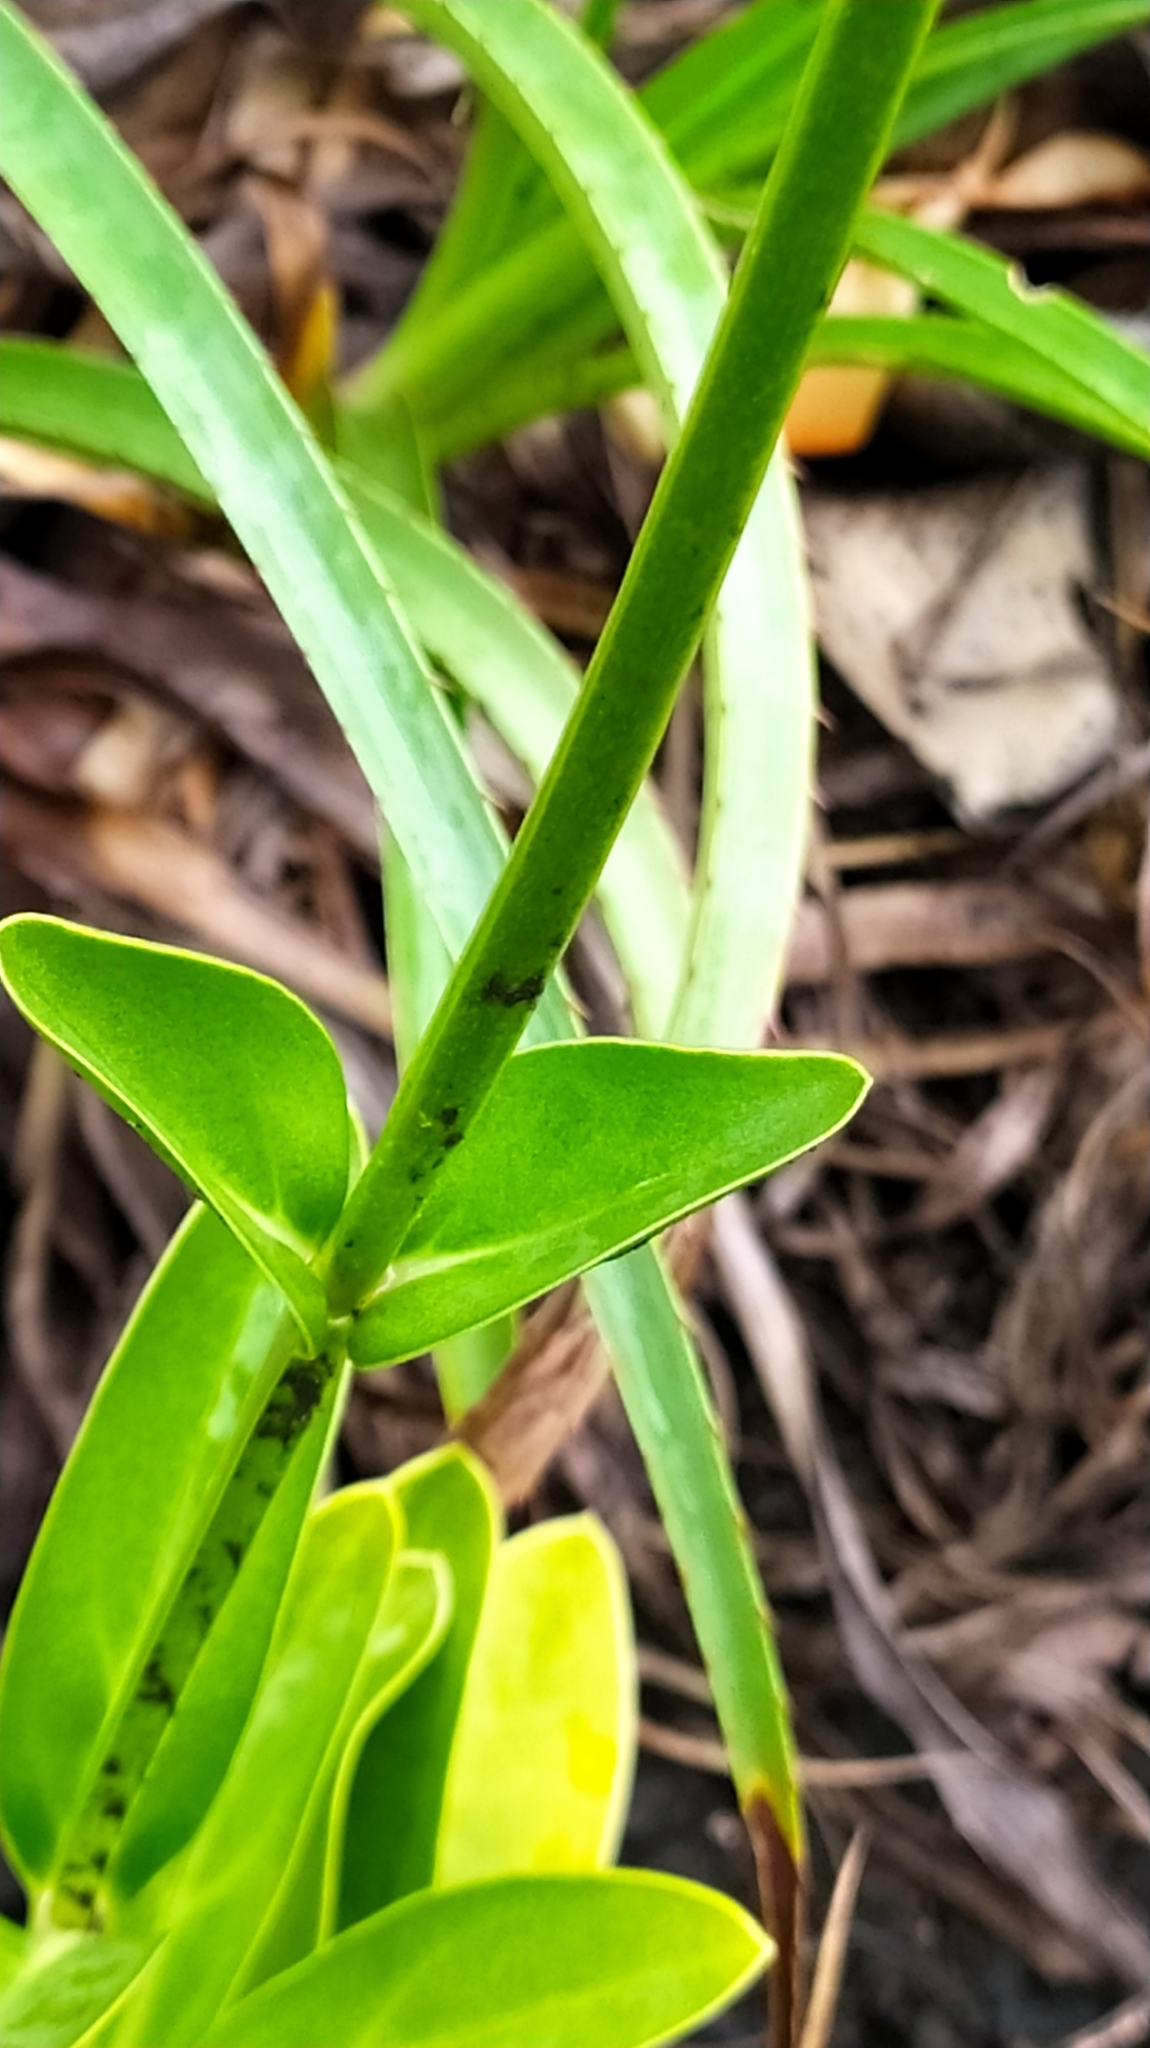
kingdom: Plantae
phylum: Tracheophyta
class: Magnoliopsida
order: Gentianales
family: Gentianaceae
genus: Chelonanthus
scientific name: Chelonanthus hamatus
